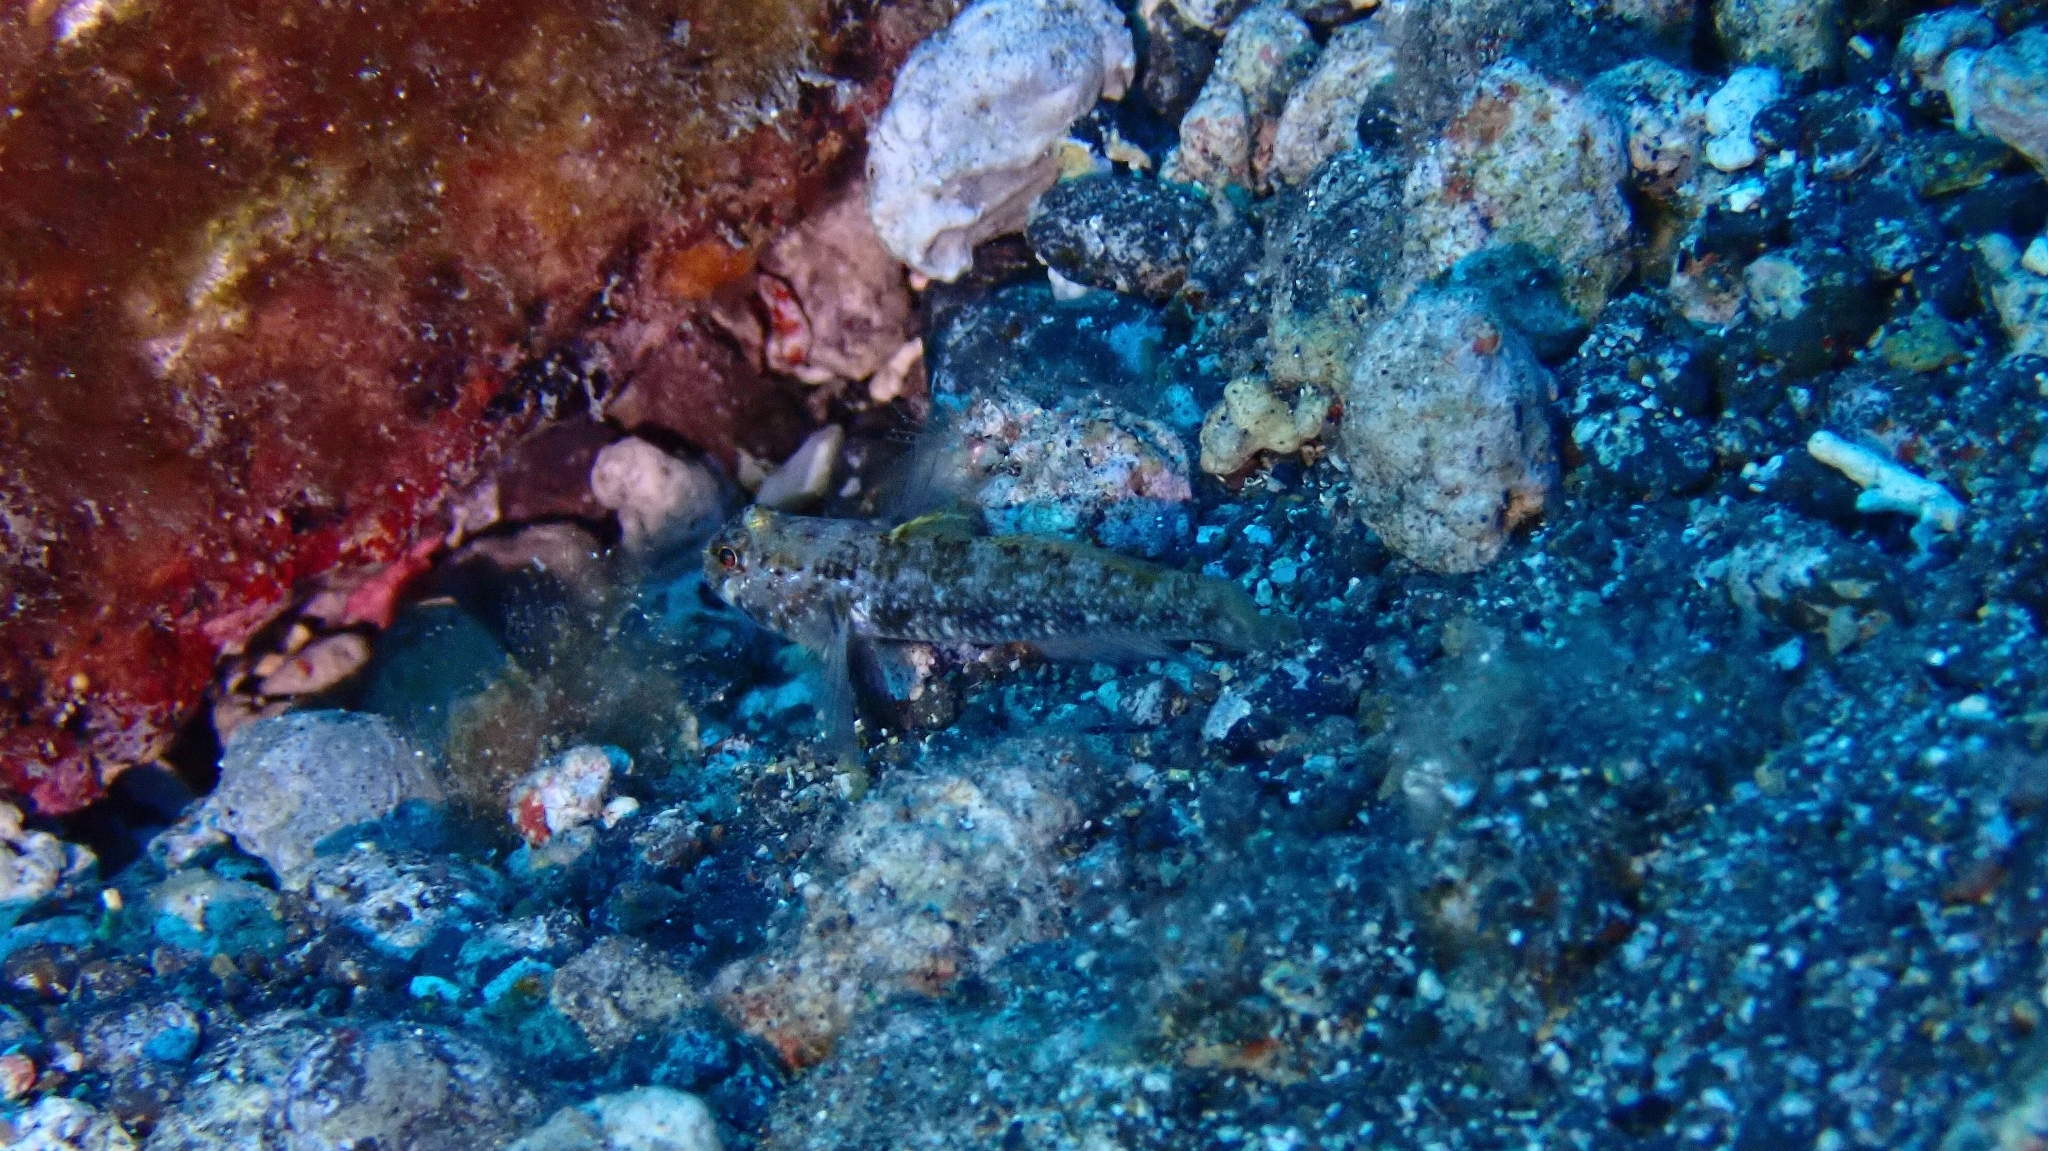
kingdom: Animalia
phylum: Chordata
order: Perciformes
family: Gobiidae
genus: Vanneaugobius
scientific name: Vanneaugobius canariensis
